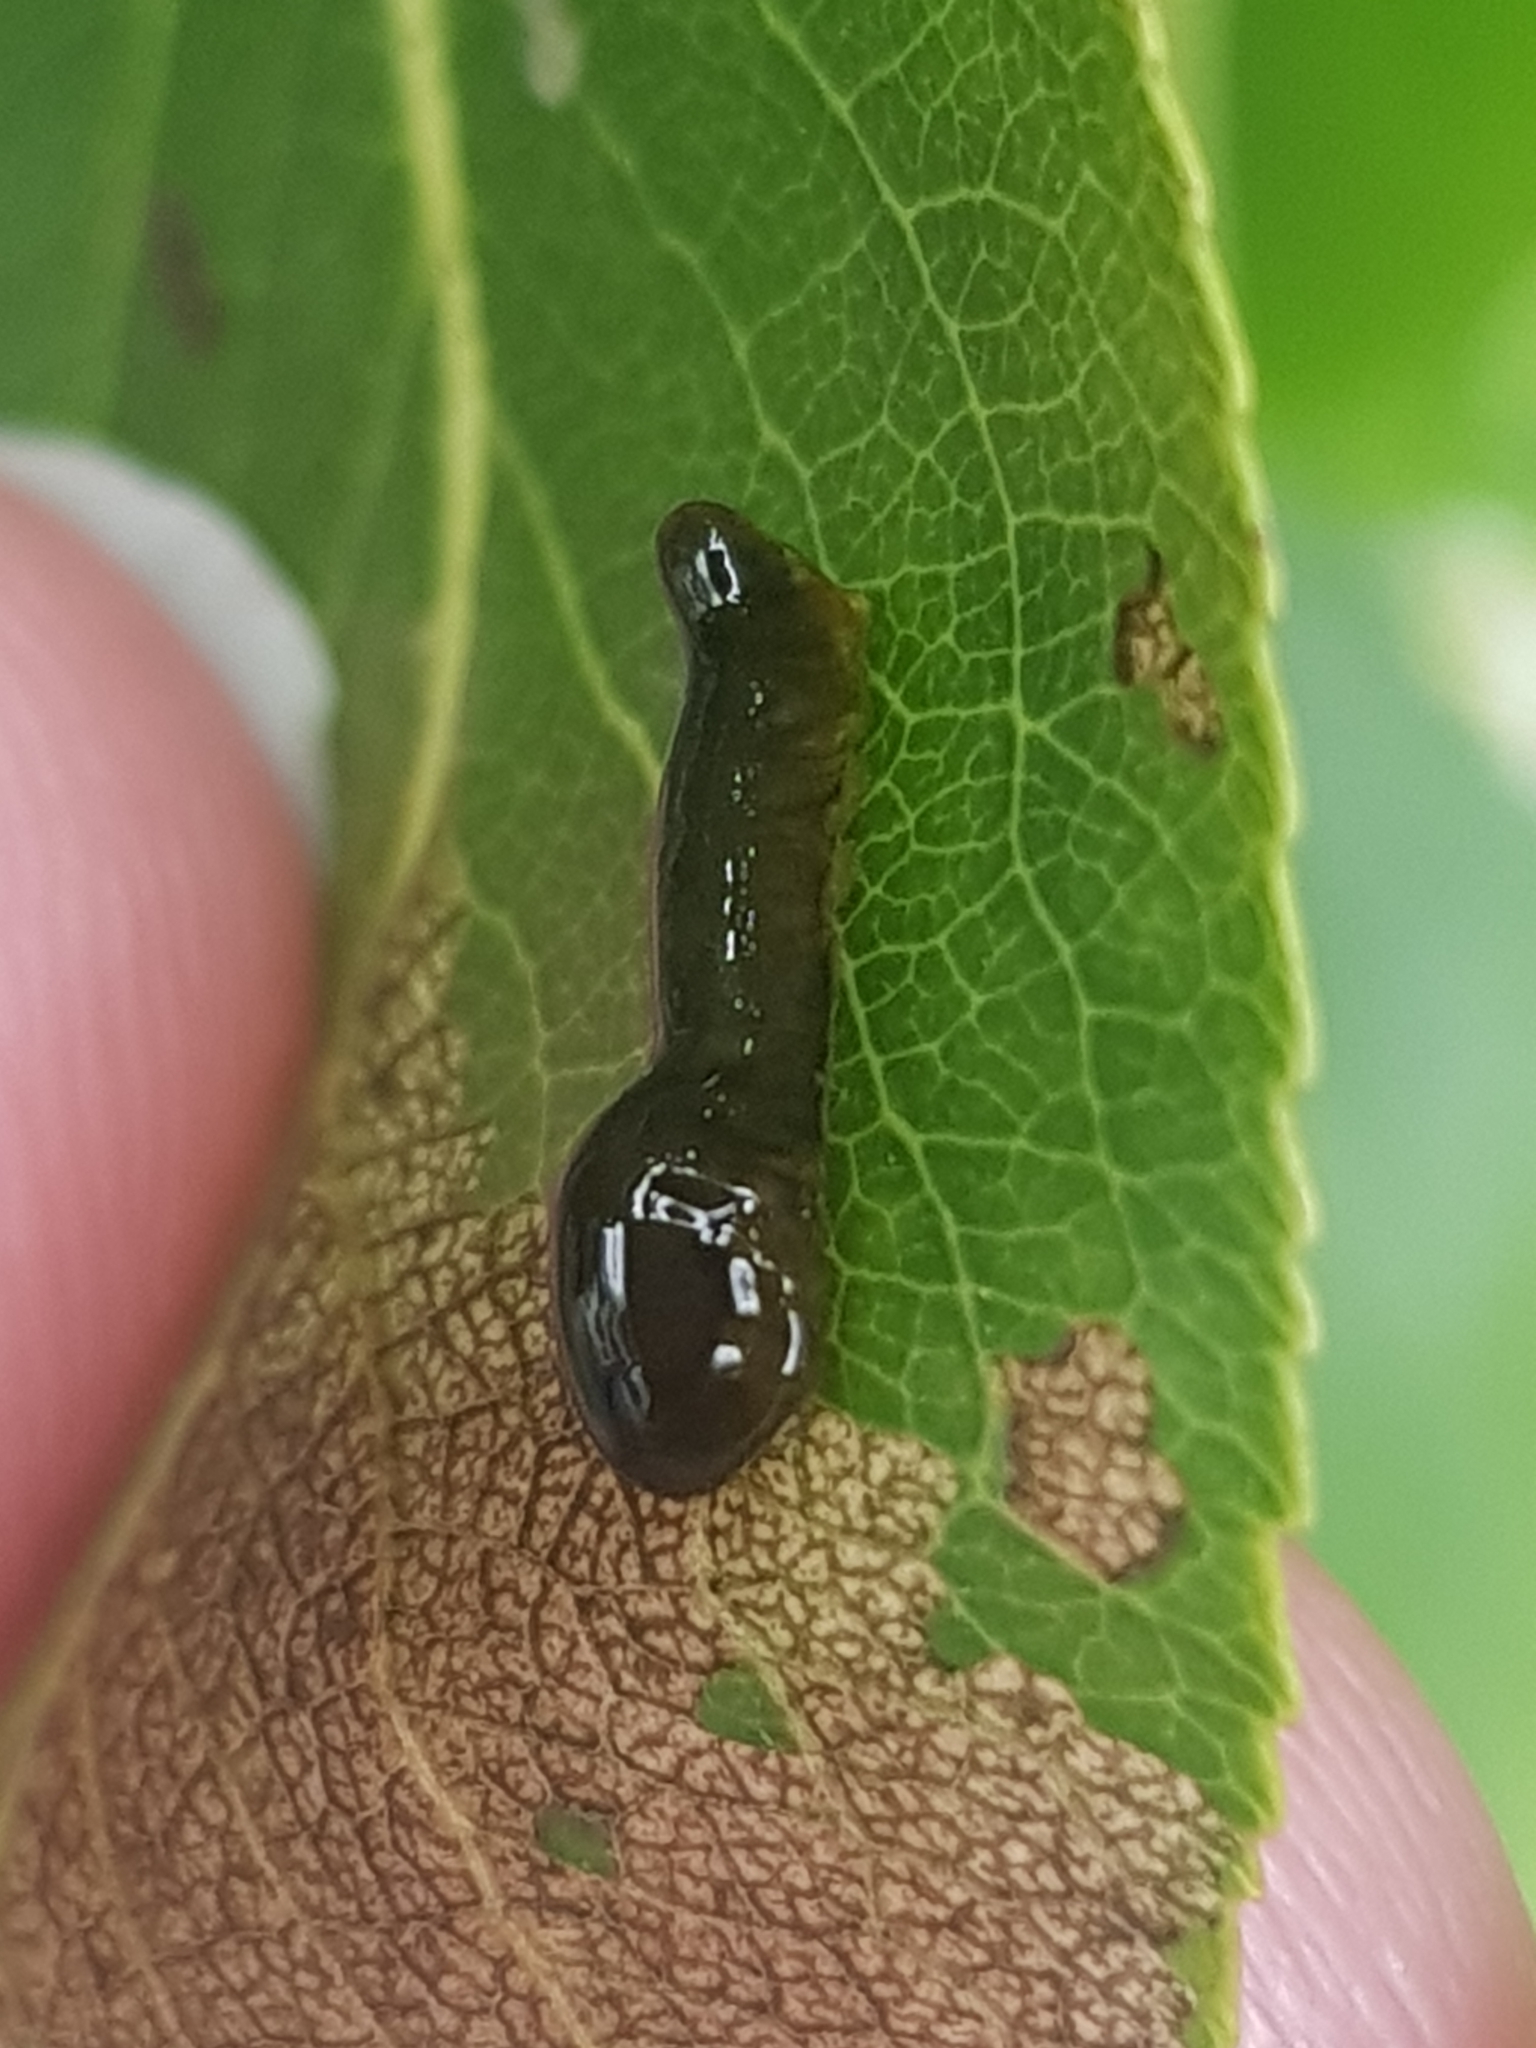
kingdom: Animalia
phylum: Arthropoda
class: Insecta
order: Hymenoptera
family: Tenthredinidae
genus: Caliroa
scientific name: Caliroa cerasi
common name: Pear sawfly
